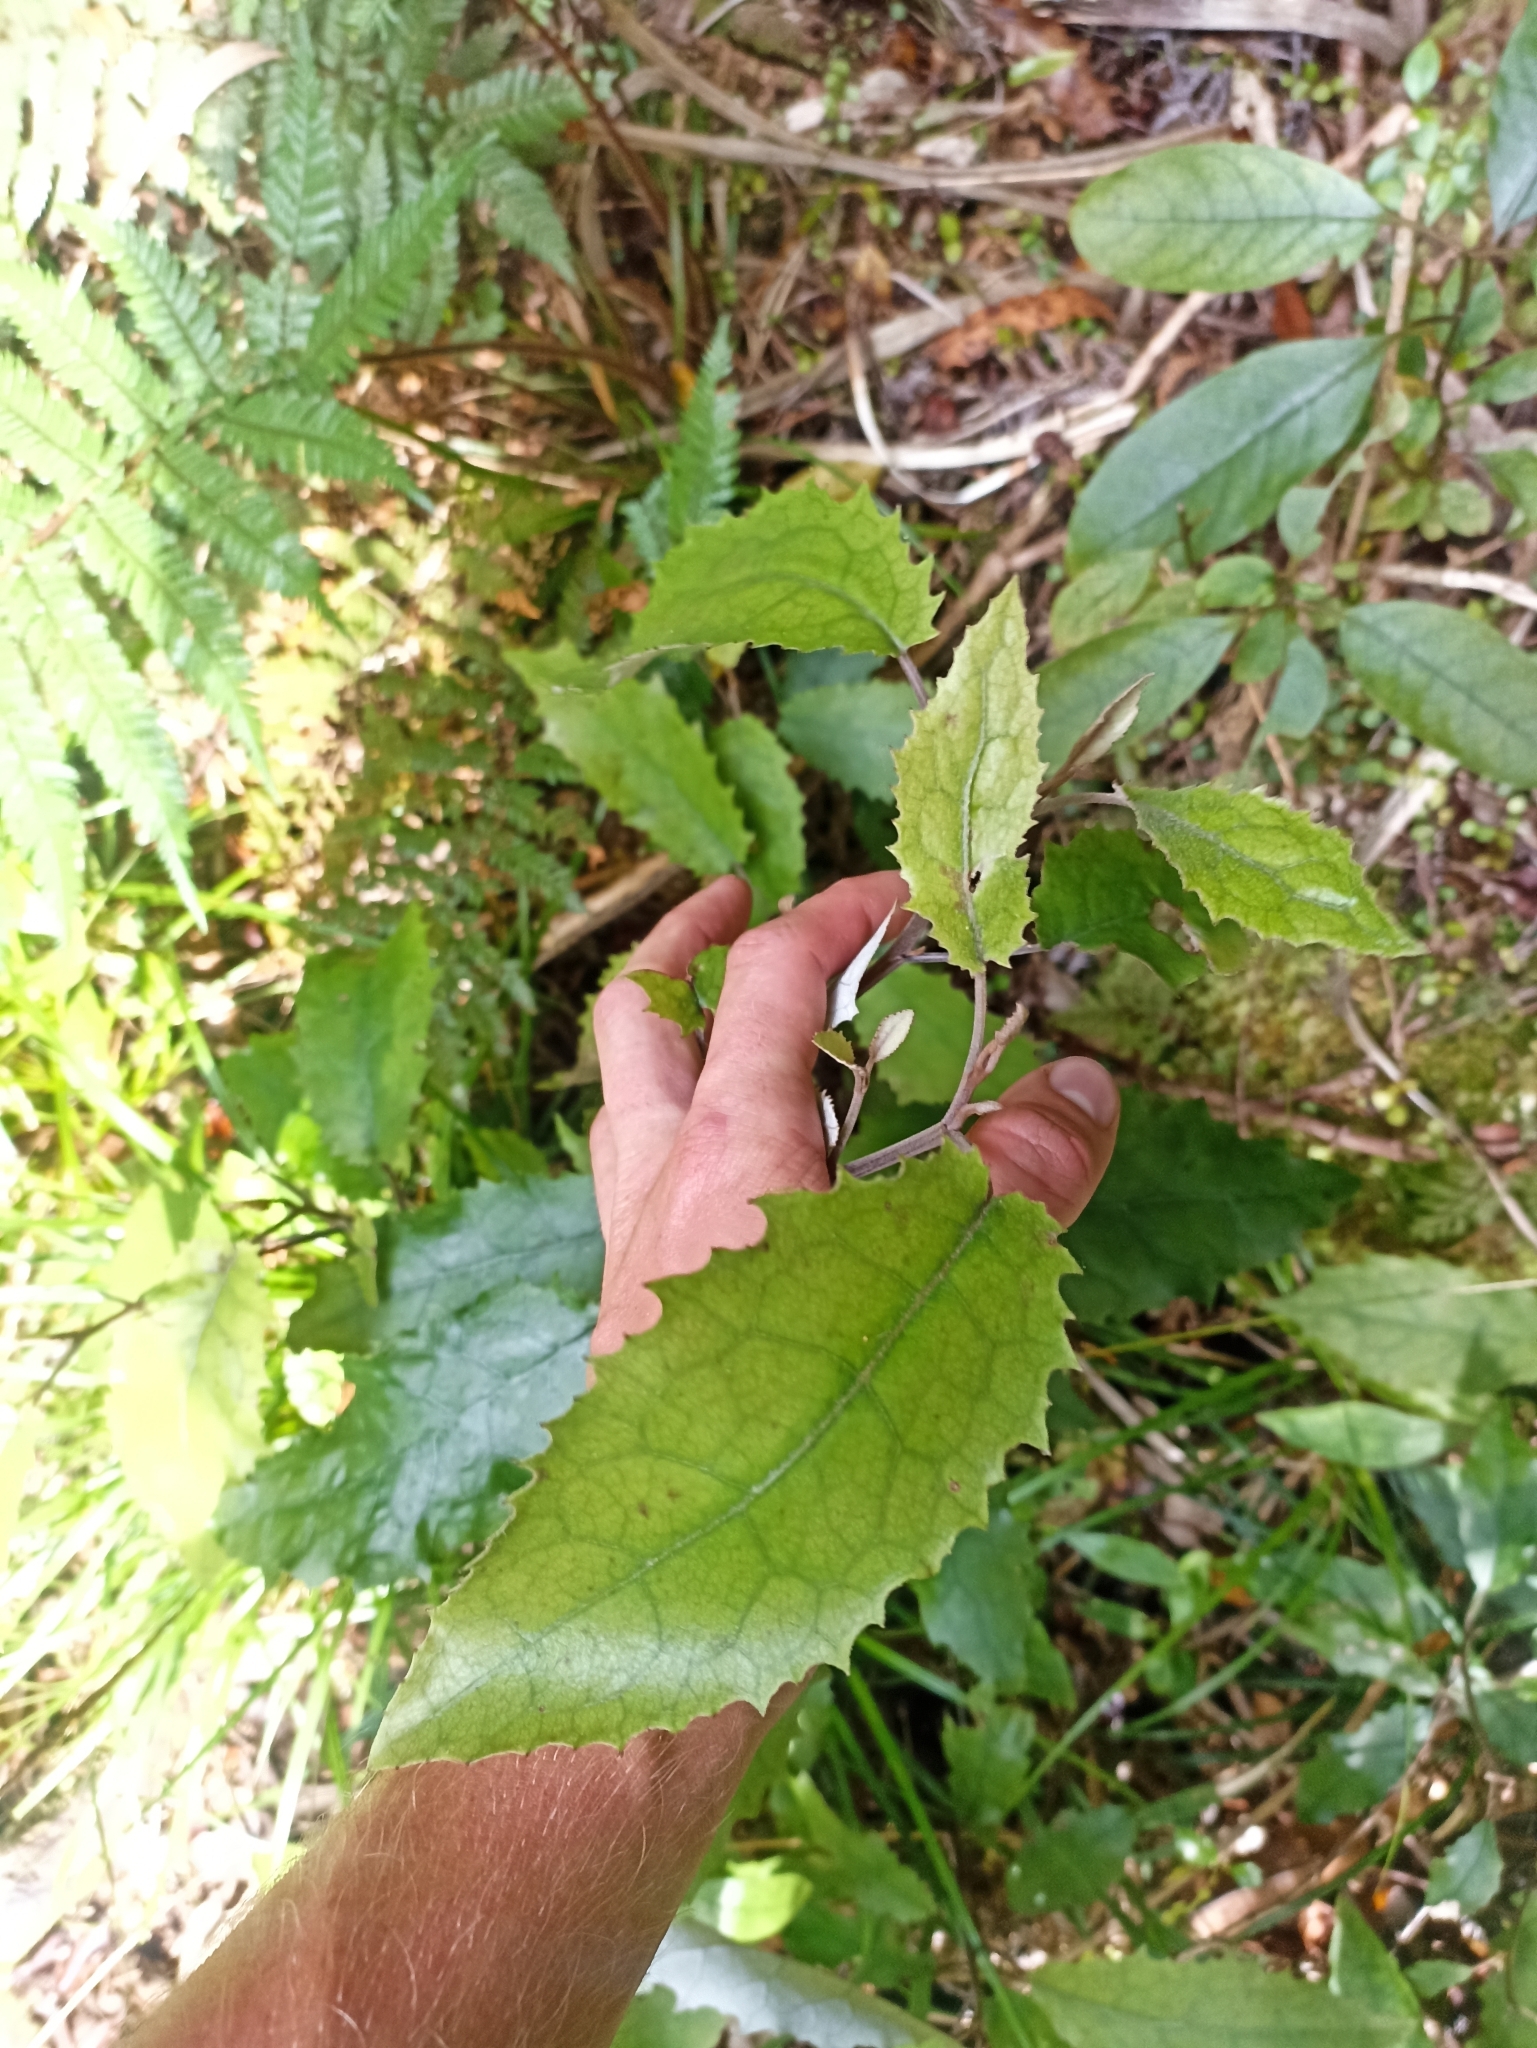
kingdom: Plantae
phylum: Tracheophyta
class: Magnoliopsida
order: Asterales
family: Asteraceae
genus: Brachyglottis
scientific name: Brachyglottis myrianthos
